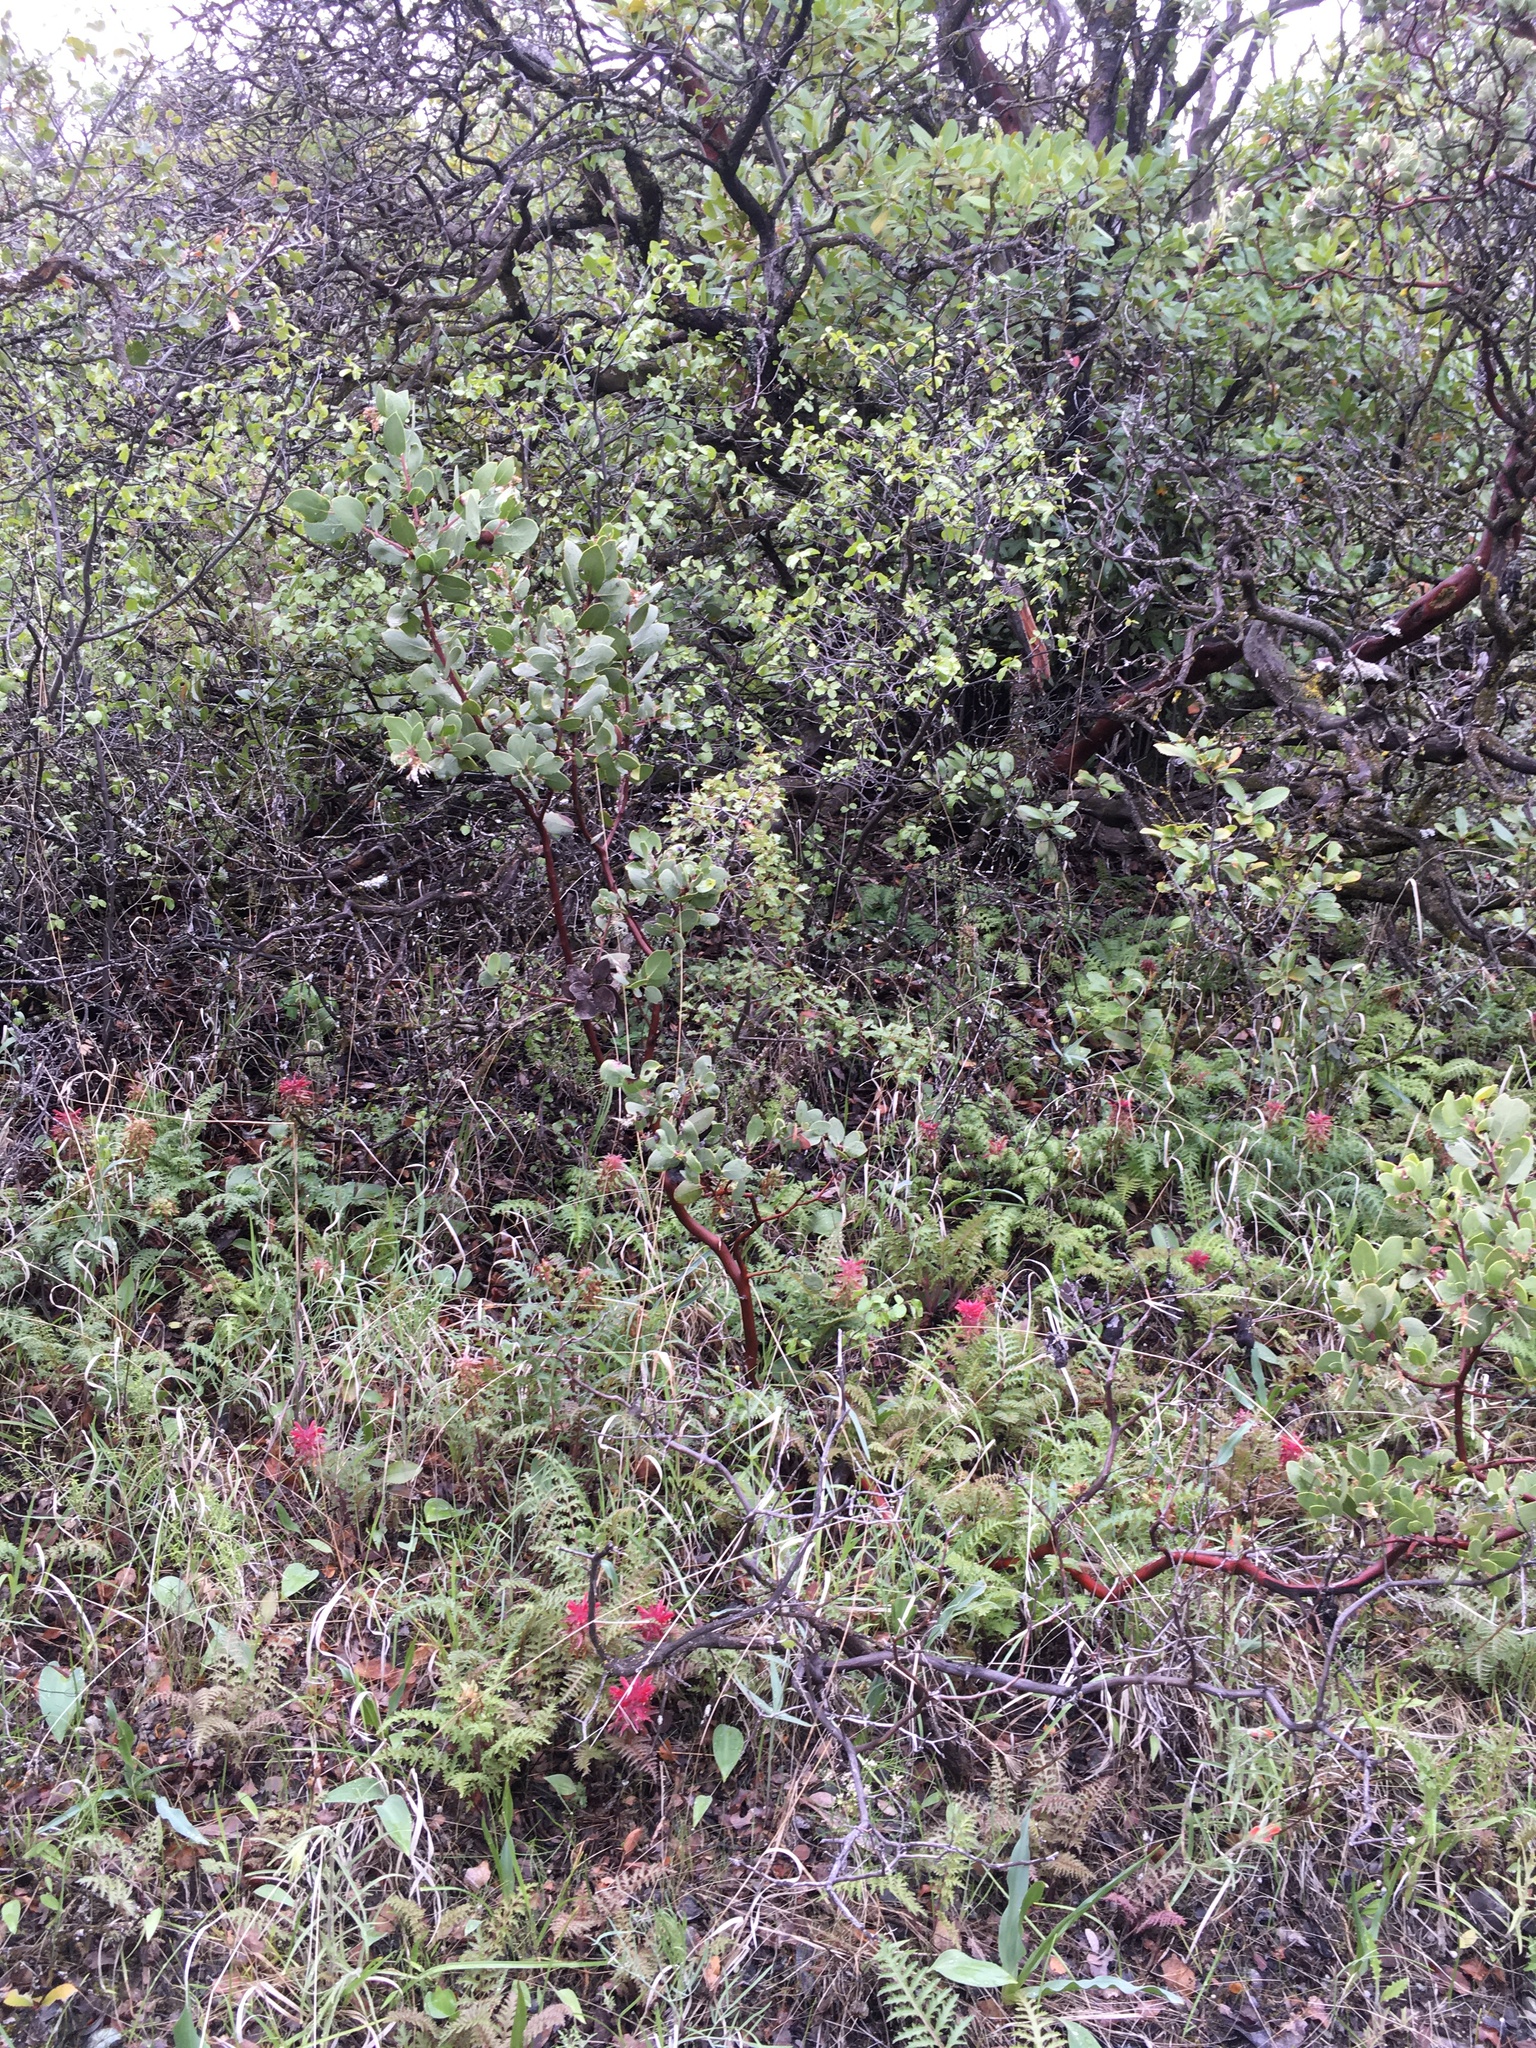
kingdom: Plantae
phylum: Tracheophyta
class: Magnoliopsida
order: Lamiales
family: Orobanchaceae
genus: Pedicularis
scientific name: Pedicularis densiflora
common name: Indian warrior
